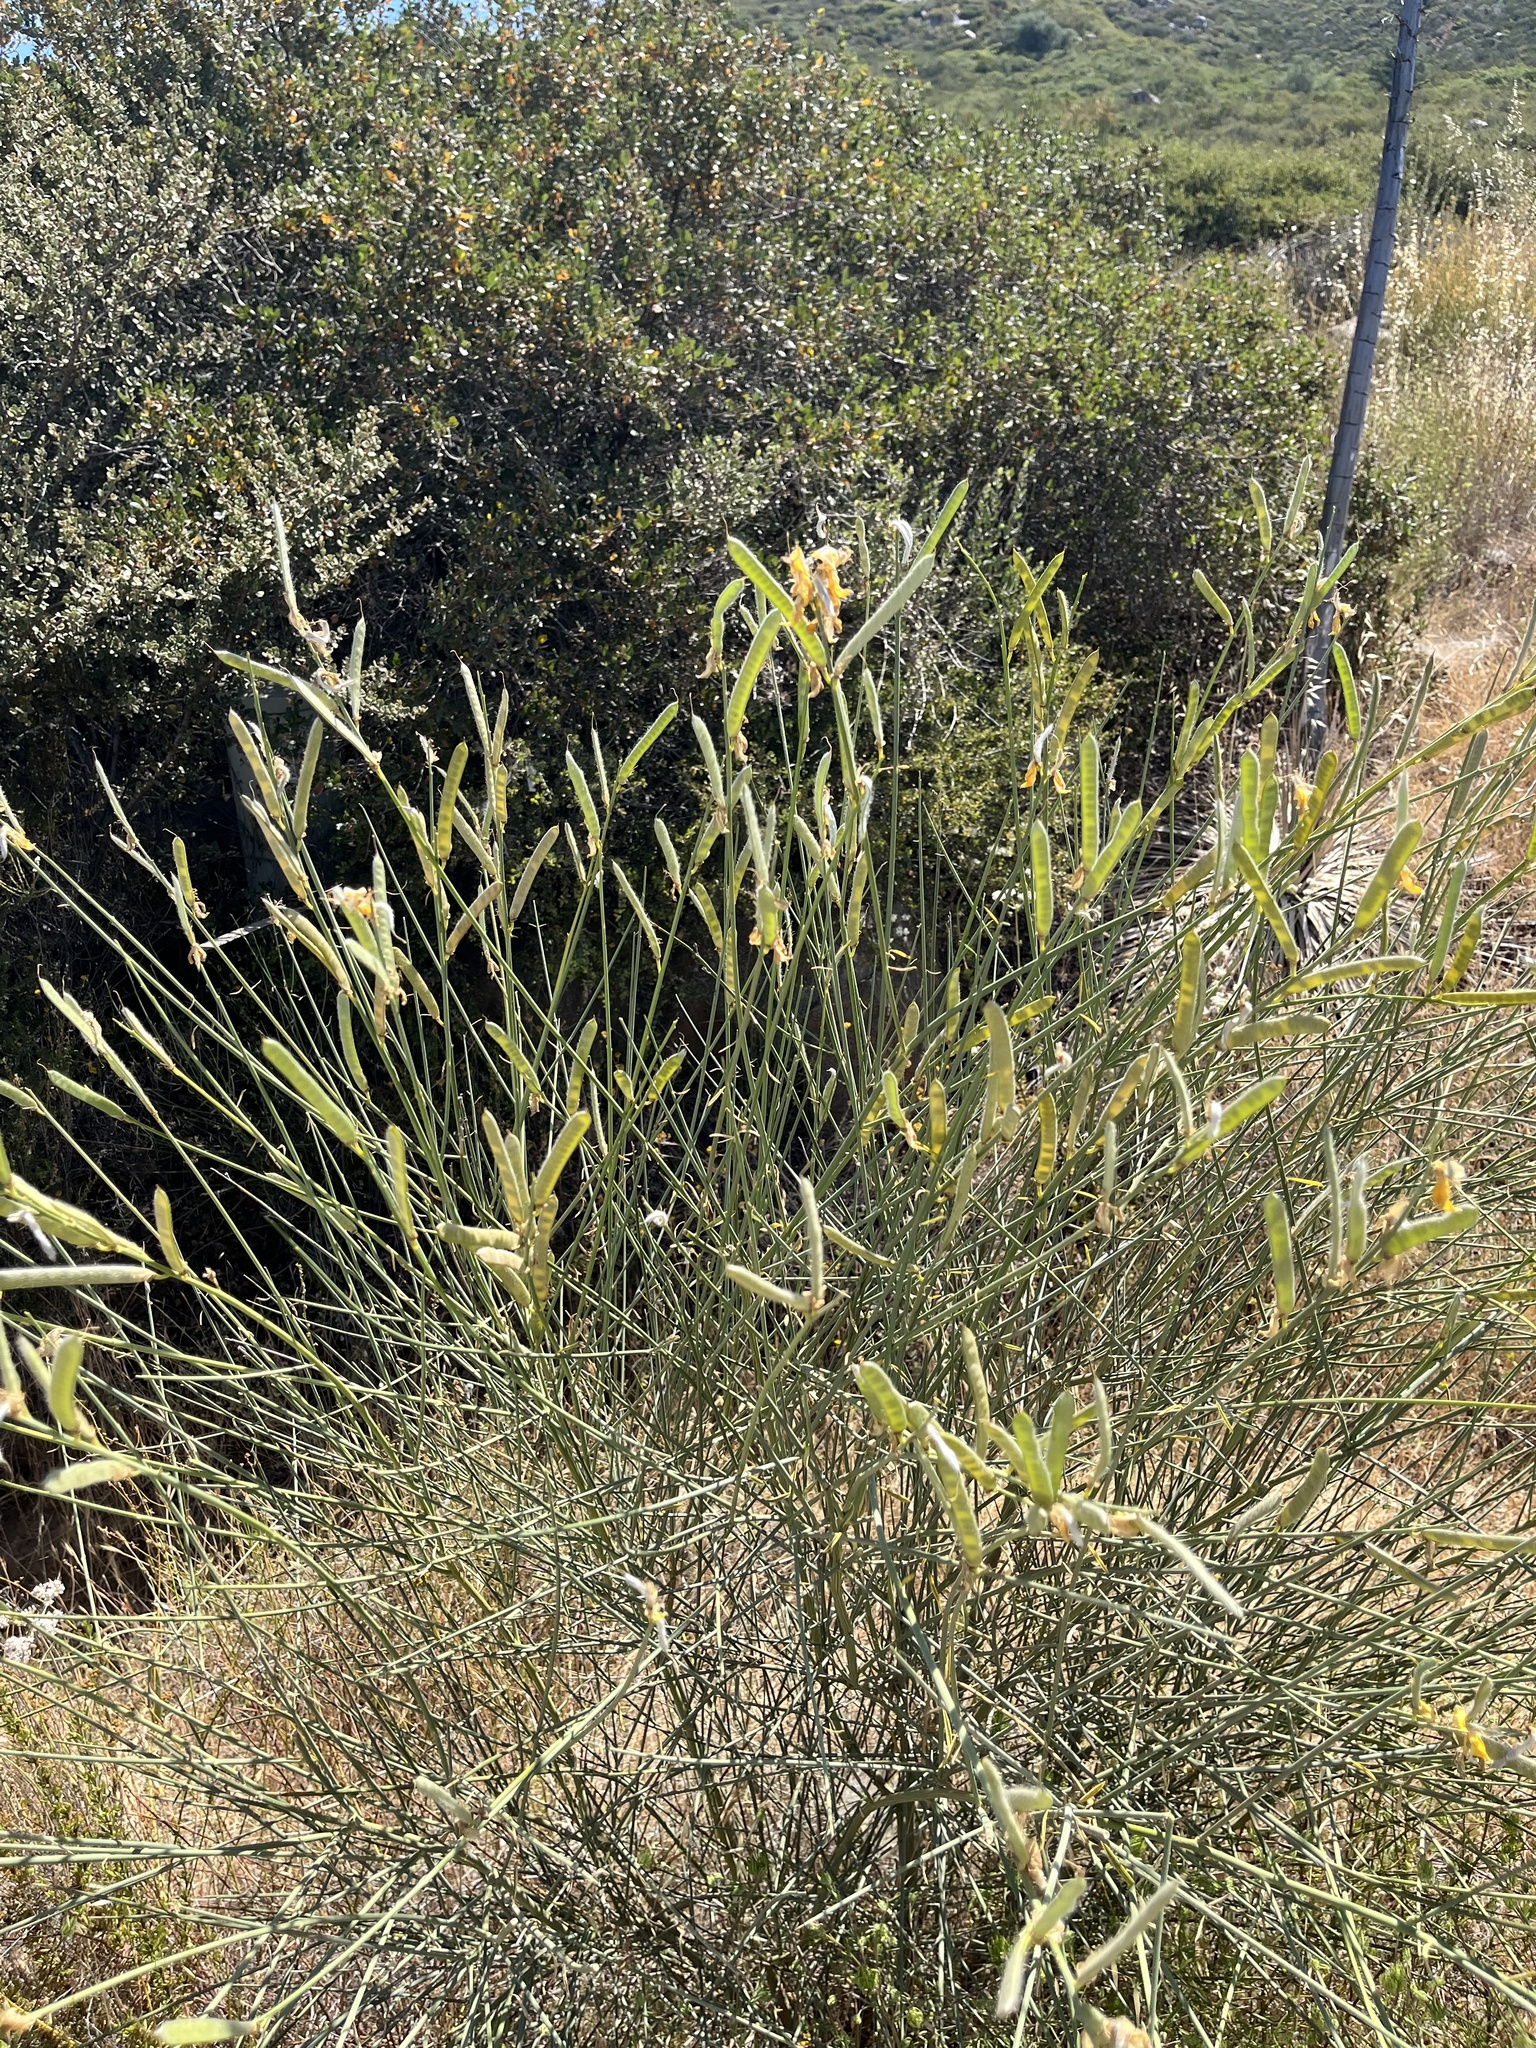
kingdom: Plantae
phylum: Tracheophyta
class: Magnoliopsida
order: Fabales
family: Fabaceae
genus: Spartium
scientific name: Spartium junceum
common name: Spanish broom
